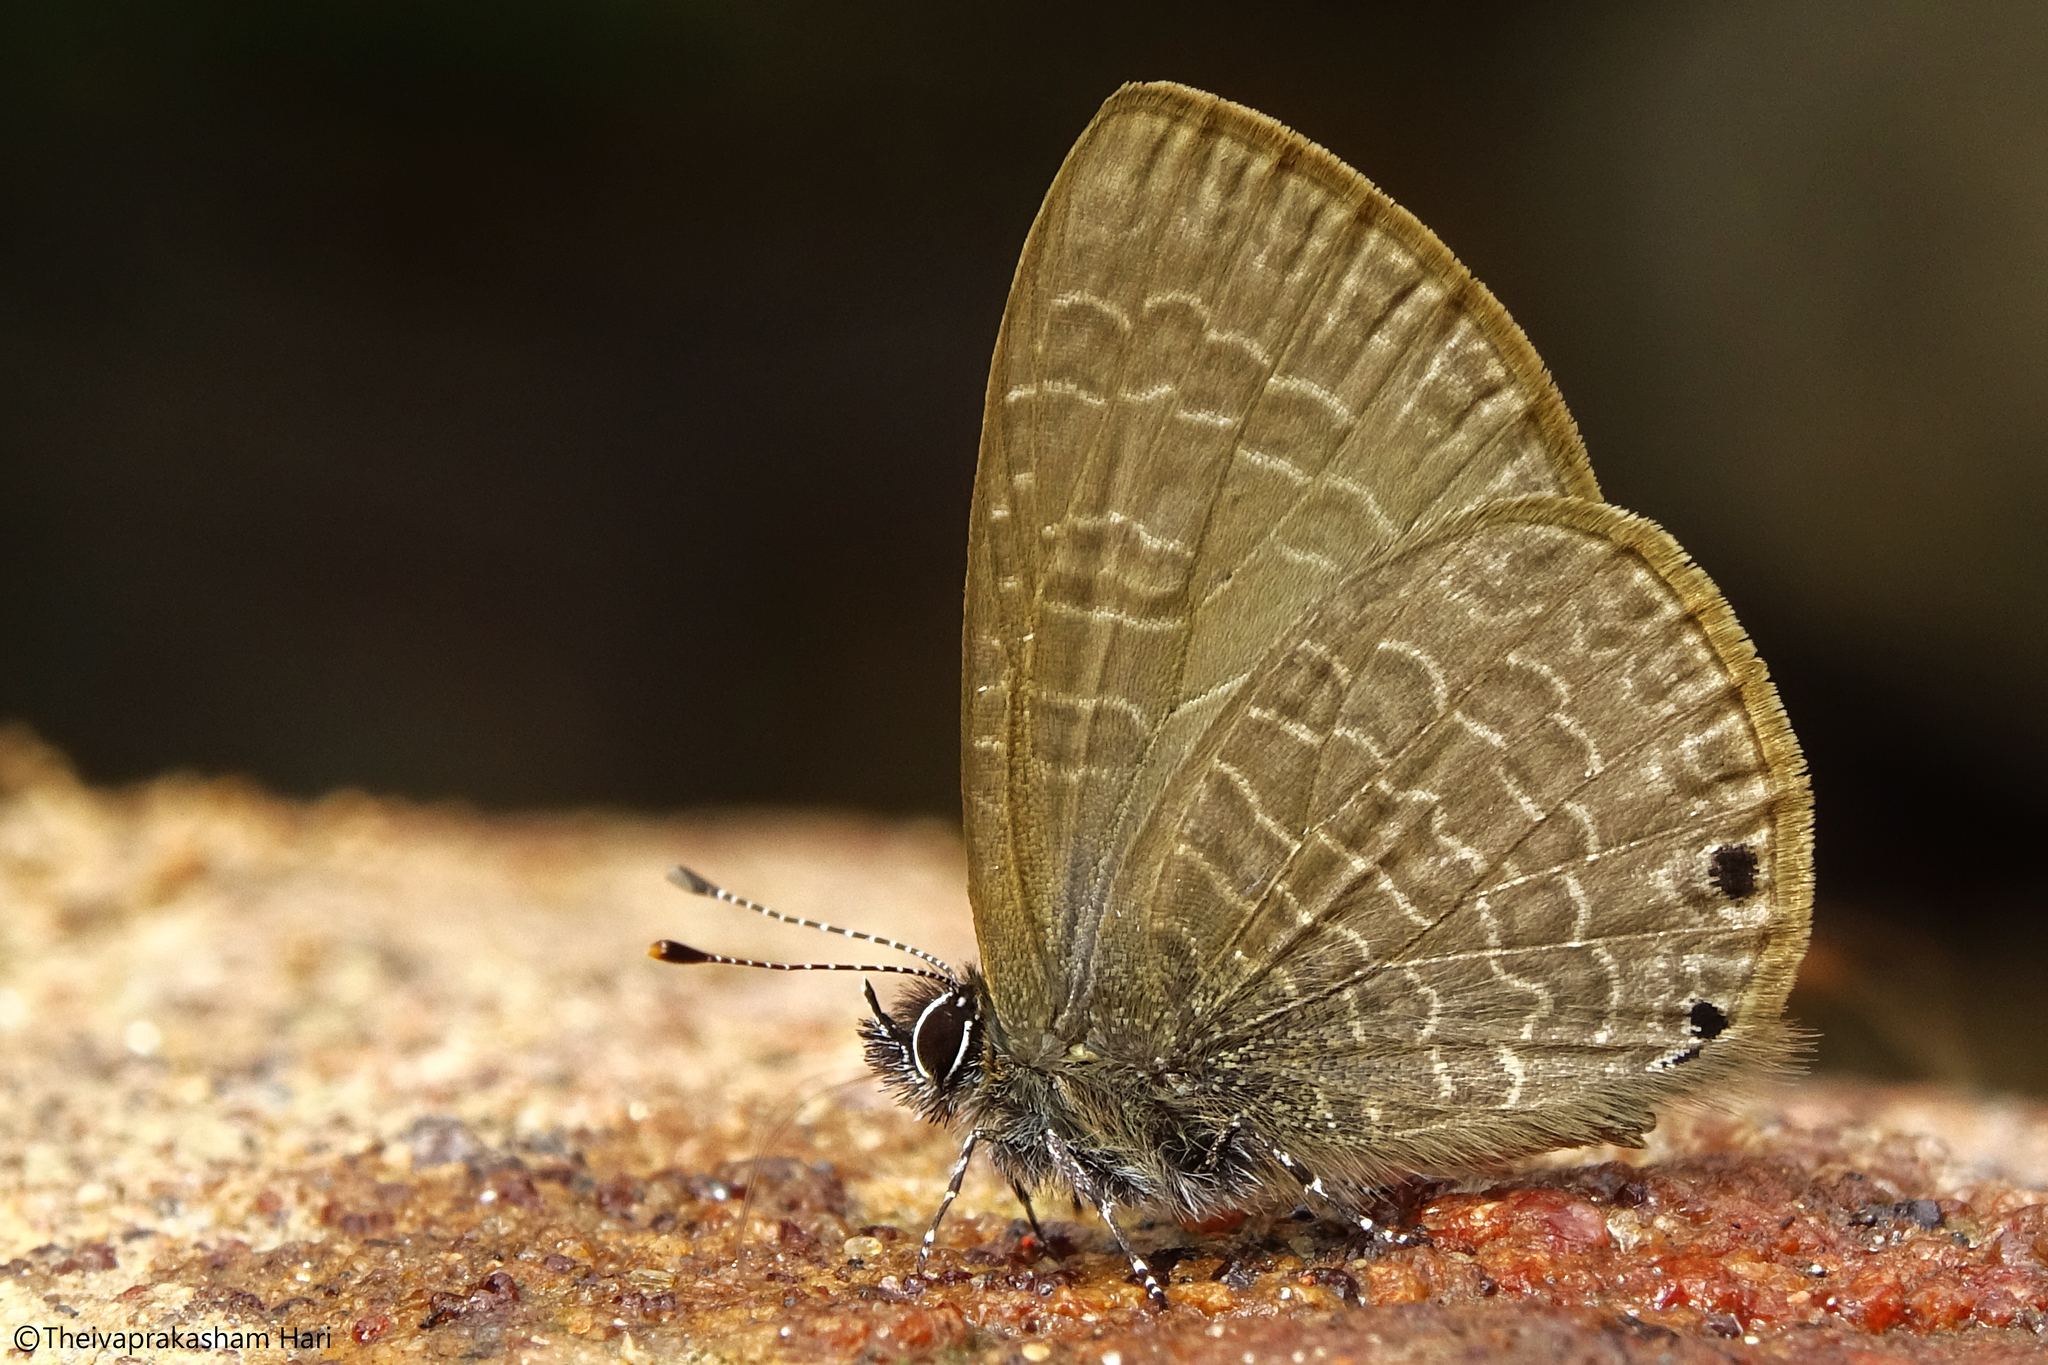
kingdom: Animalia
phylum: Arthropoda
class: Insecta
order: Lepidoptera
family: Lycaenidae
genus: Petrelaea
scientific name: Petrelaea dana
